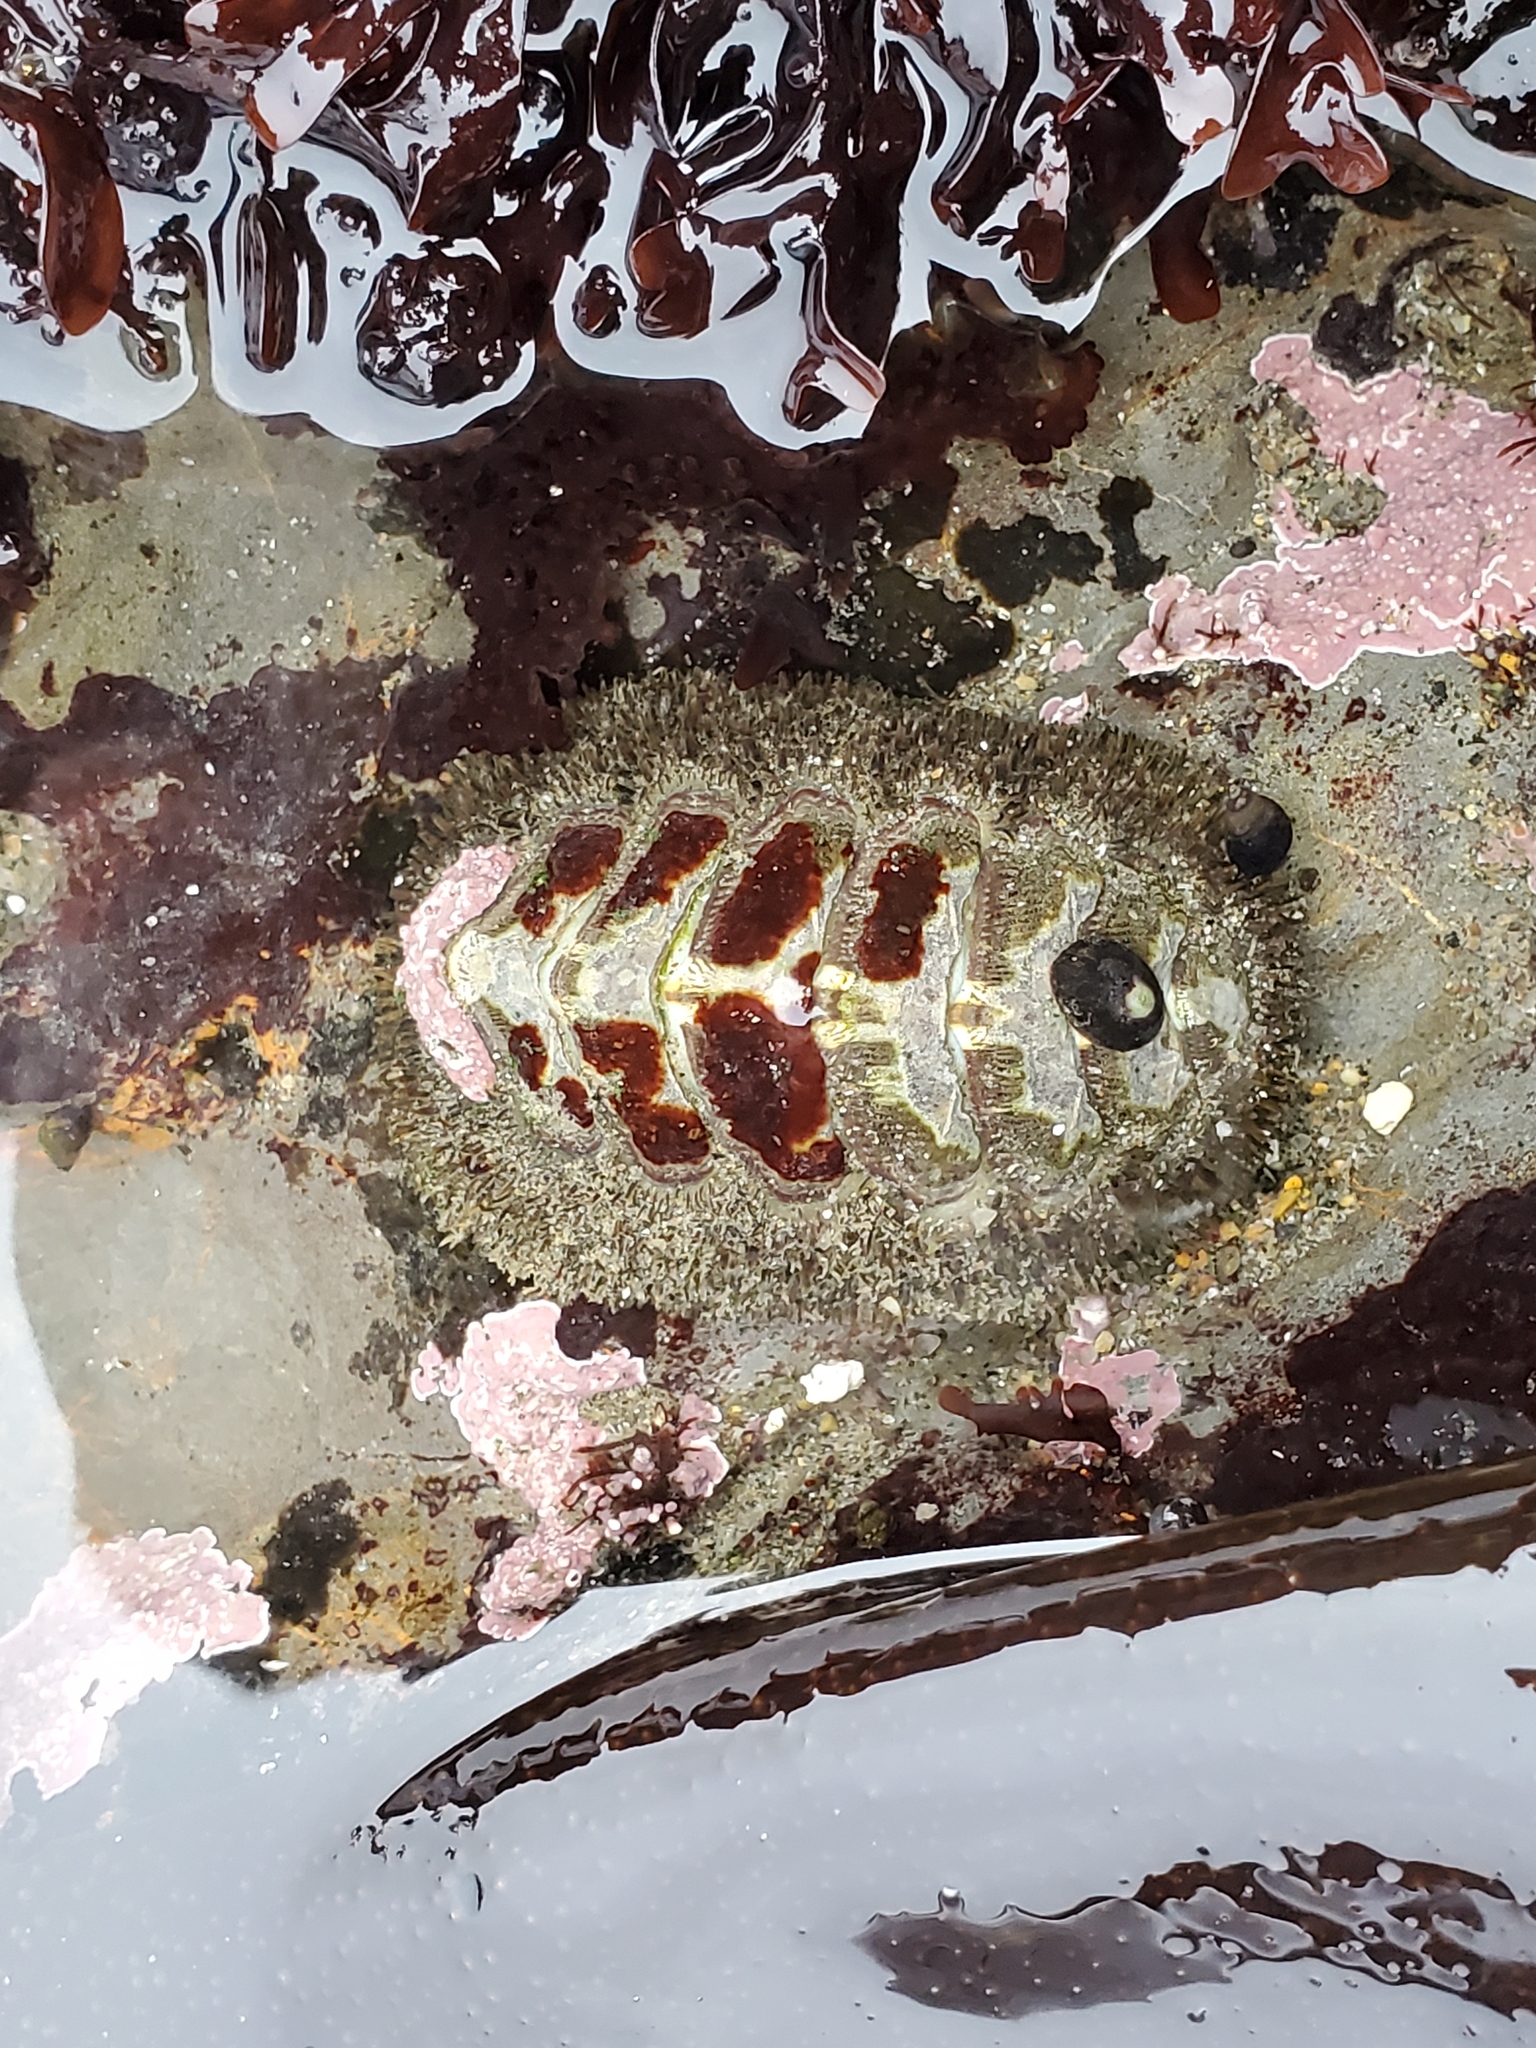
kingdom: Animalia
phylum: Mollusca
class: Polyplacophora
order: Chitonida
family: Mopaliidae
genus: Mopalia
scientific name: Mopalia muscosa
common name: Mossy chiton
